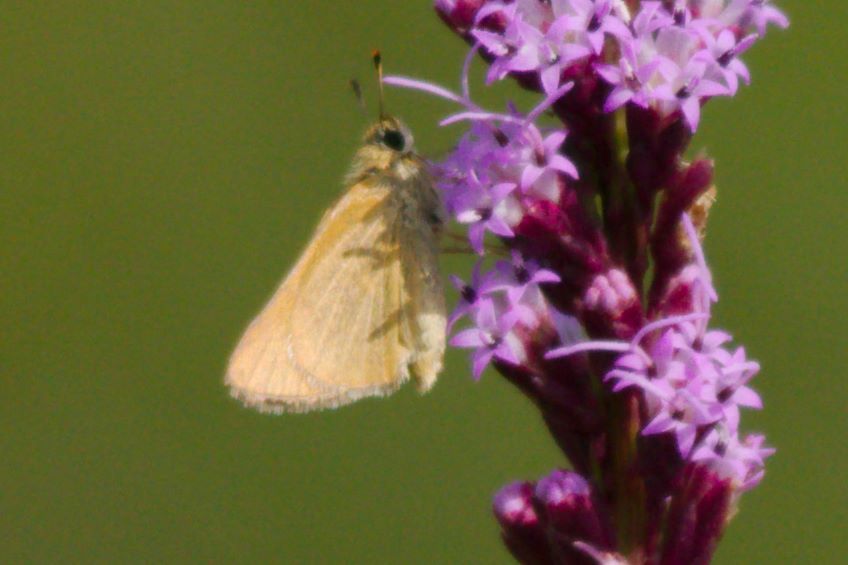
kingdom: Animalia
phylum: Arthropoda
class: Insecta
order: Lepidoptera
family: Hesperiidae
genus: Atrytone
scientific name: Atrytone arogos
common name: Arogos skipper
